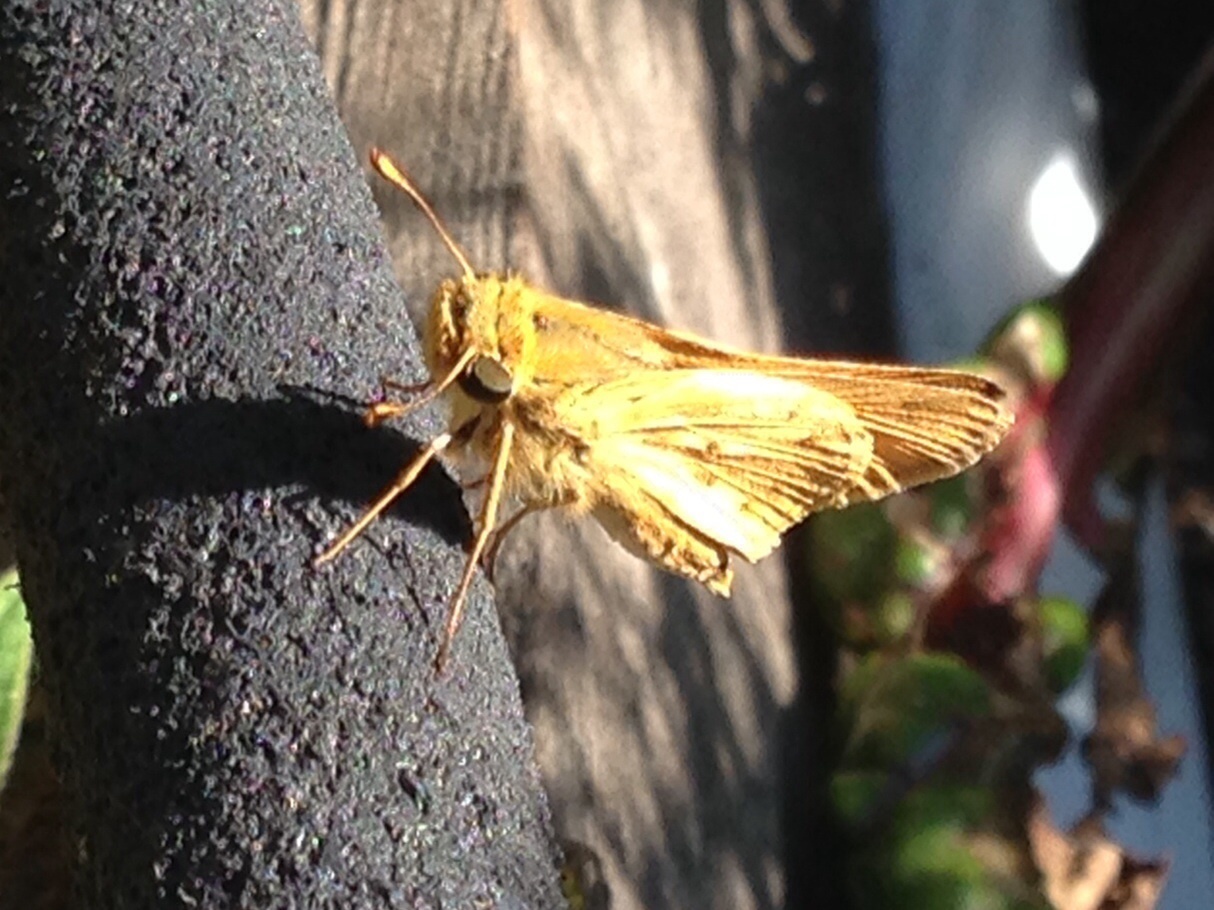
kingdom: Animalia
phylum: Arthropoda
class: Insecta
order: Lepidoptera
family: Hesperiidae
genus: Hylephila
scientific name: Hylephila phyleus
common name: Fiery skipper
